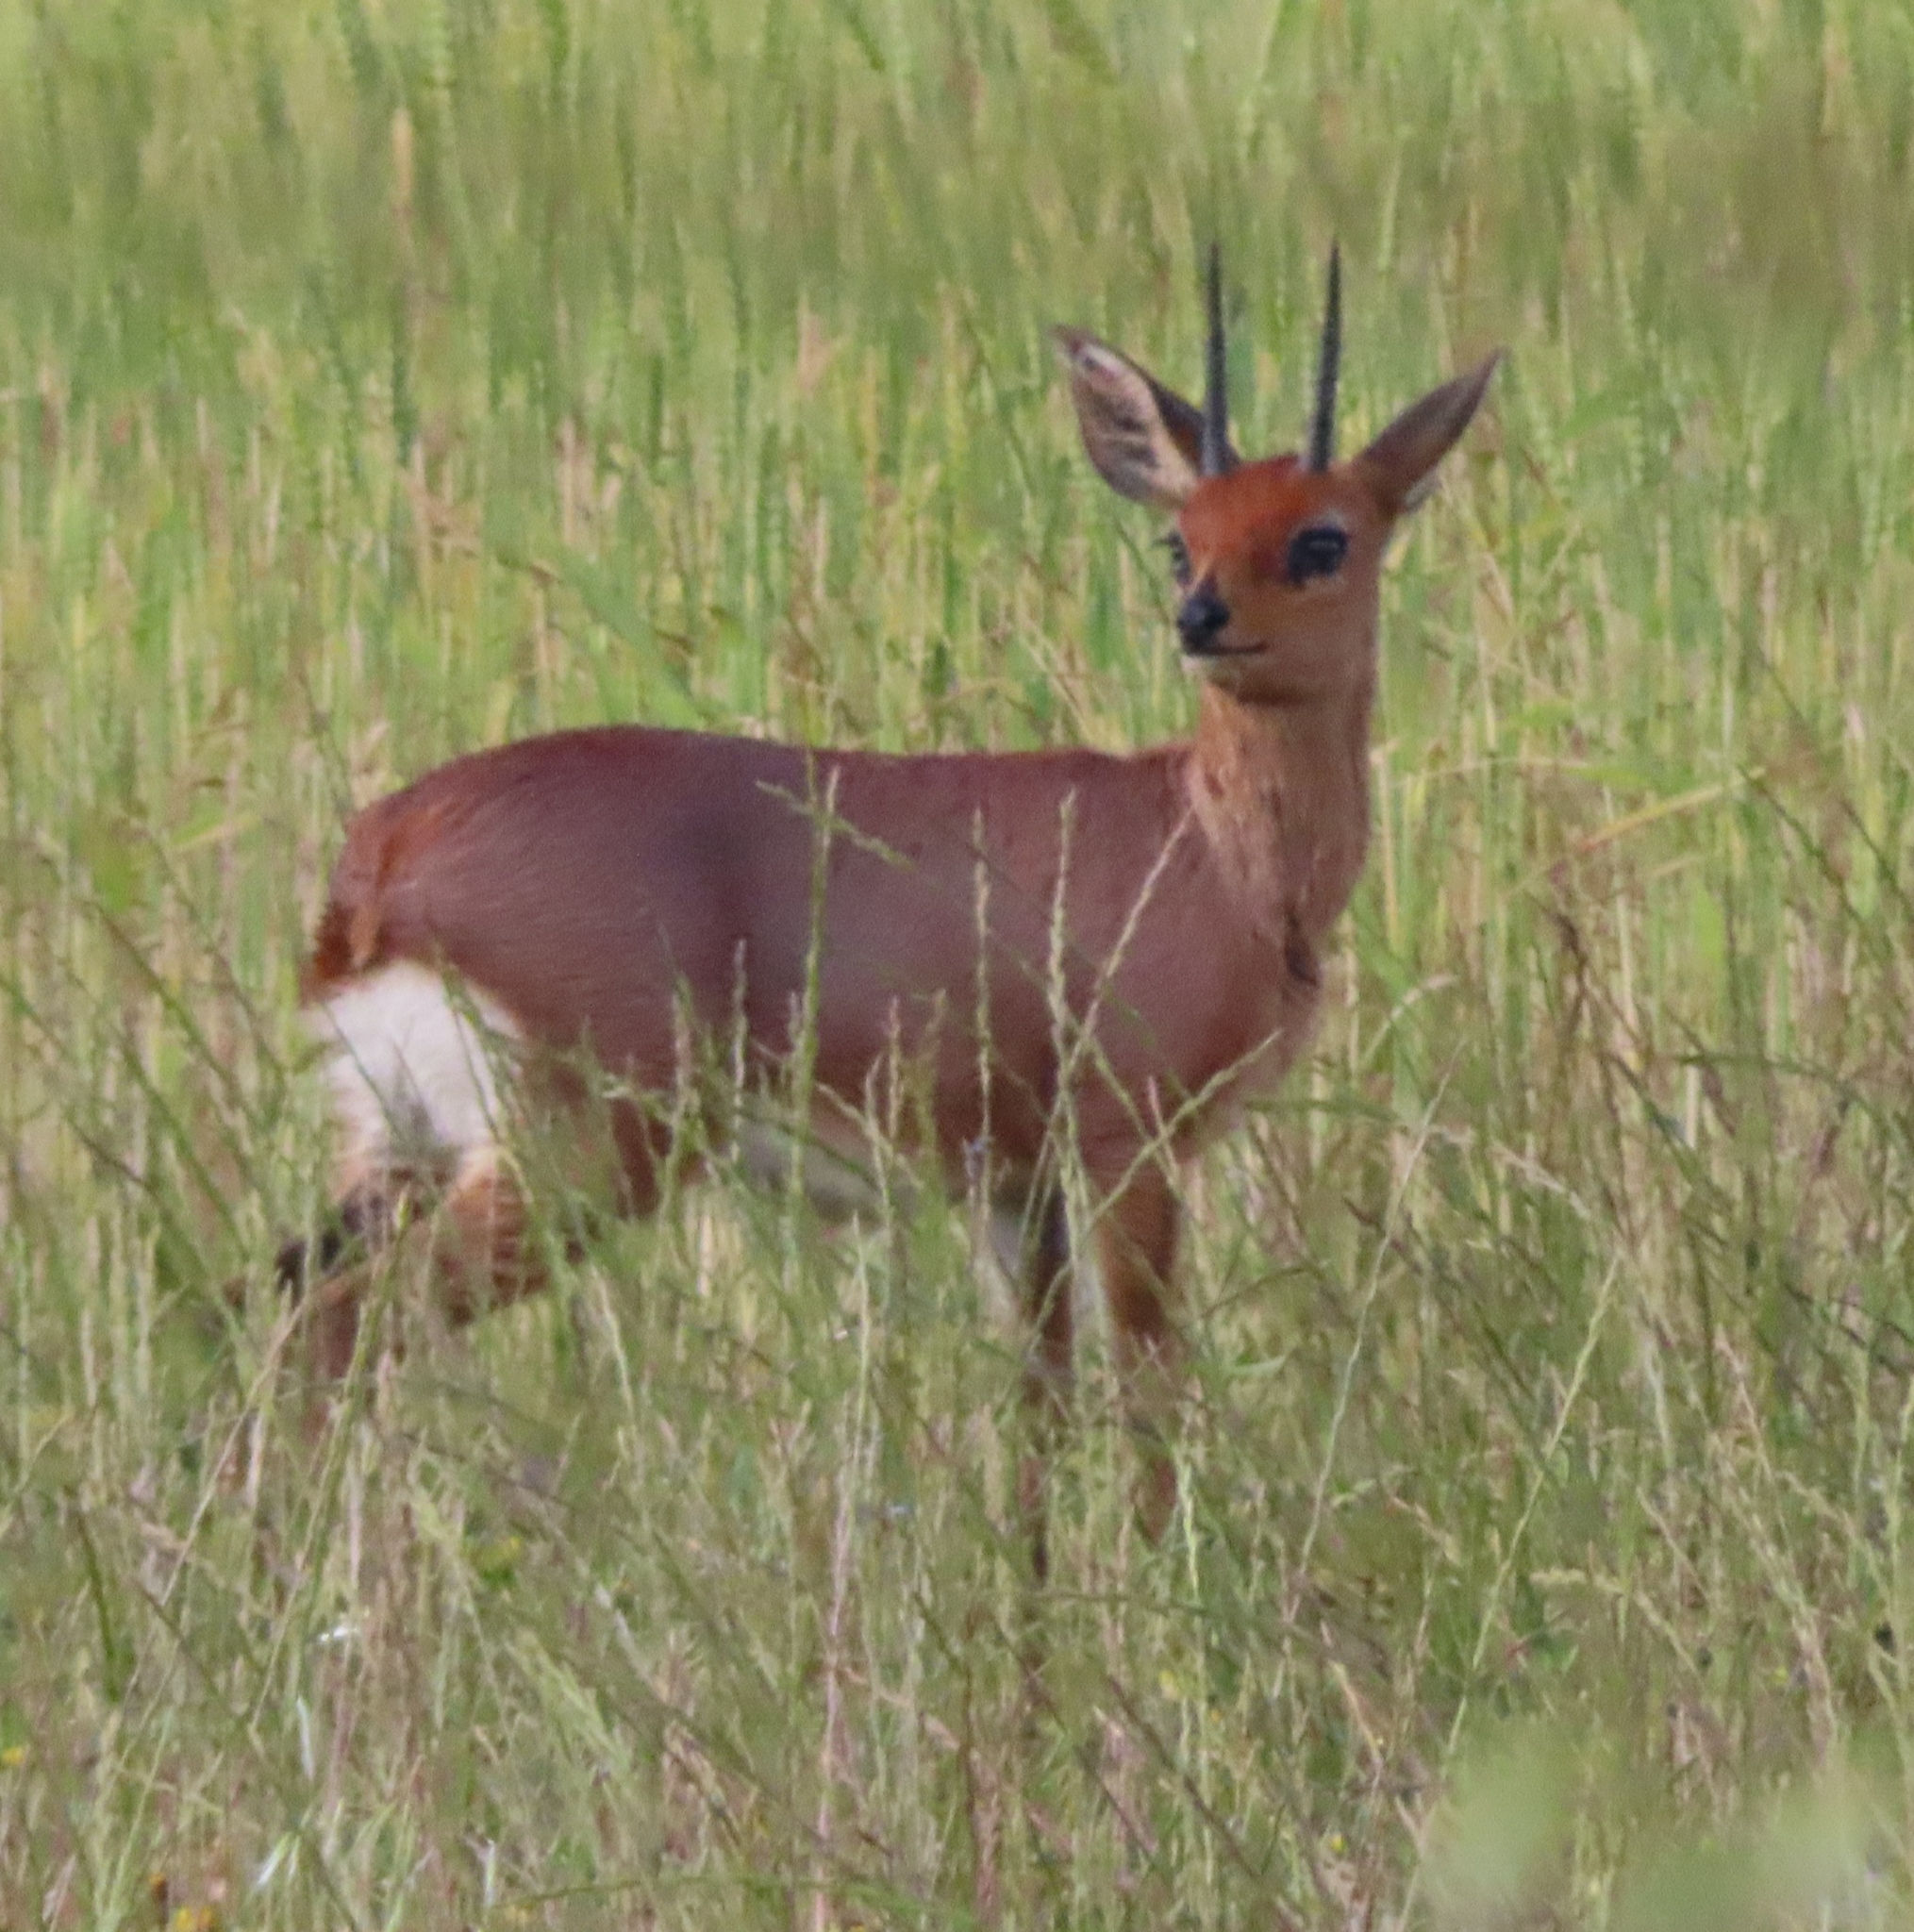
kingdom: Animalia
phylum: Chordata
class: Mammalia
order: Artiodactyla
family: Bovidae
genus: Raphicerus
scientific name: Raphicerus campestris
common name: Steenbok
